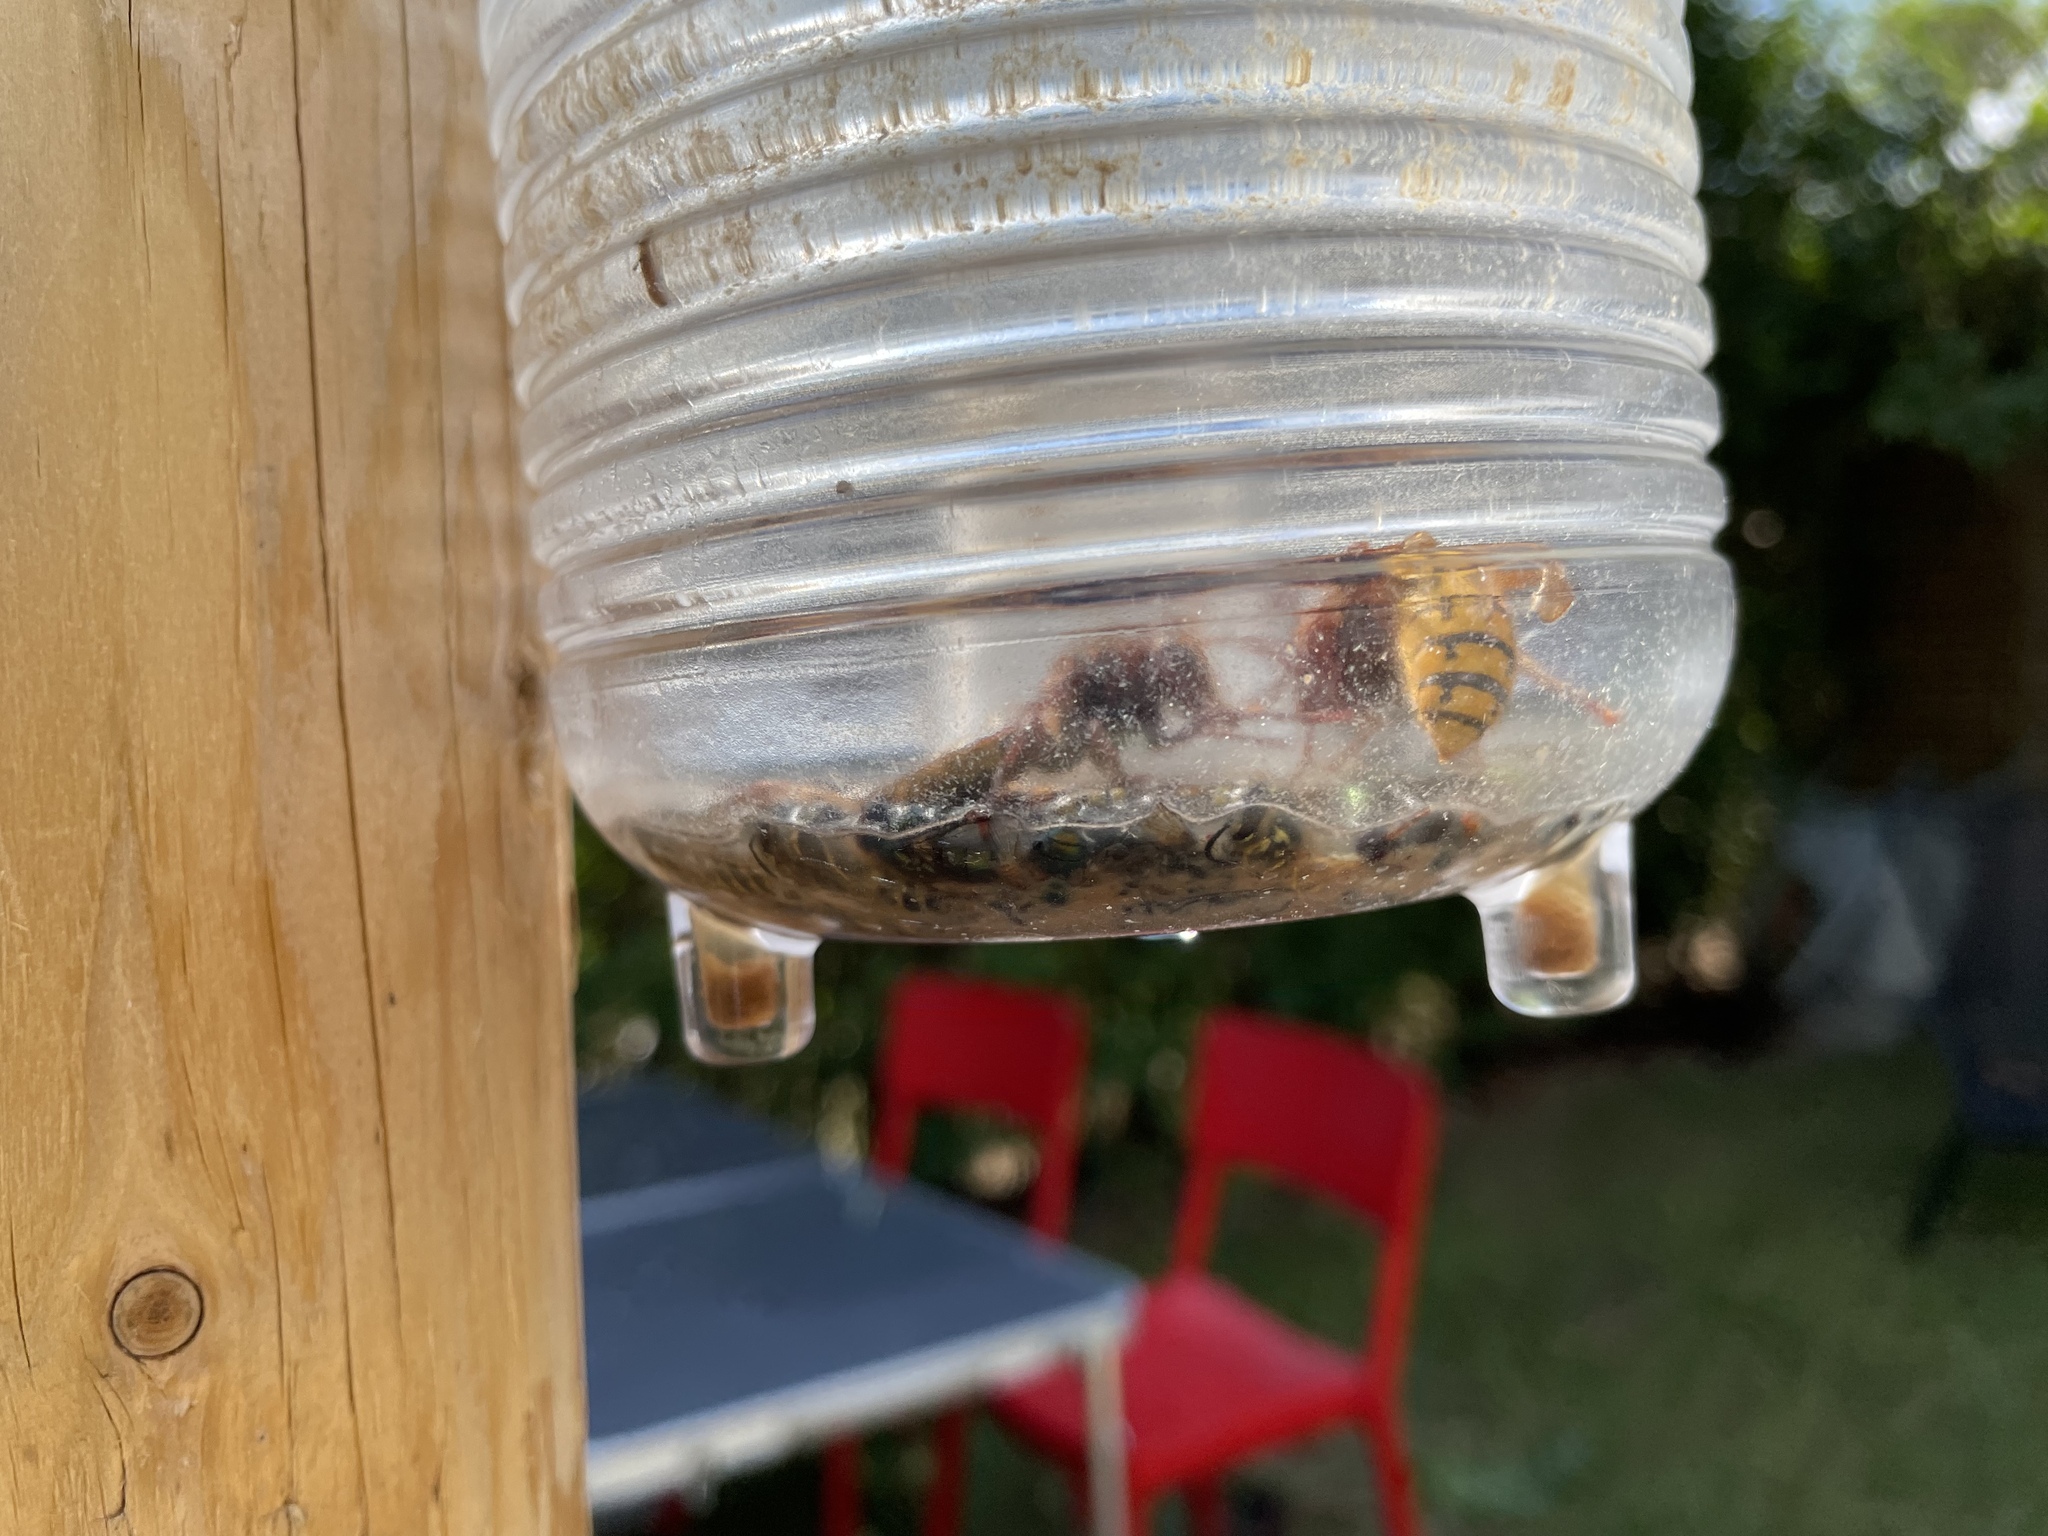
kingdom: Animalia
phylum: Arthropoda
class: Insecta
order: Hymenoptera
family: Vespidae
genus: Vespa
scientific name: Vespa crabro
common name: Hornet
